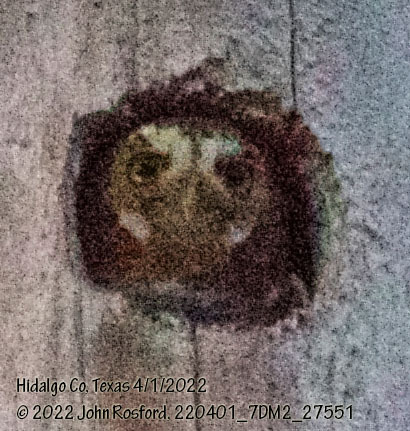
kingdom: Animalia
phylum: Chordata
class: Aves
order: Strigiformes
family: Strigidae
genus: Micrathene
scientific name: Micrathene whitneyi
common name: Elf owl
